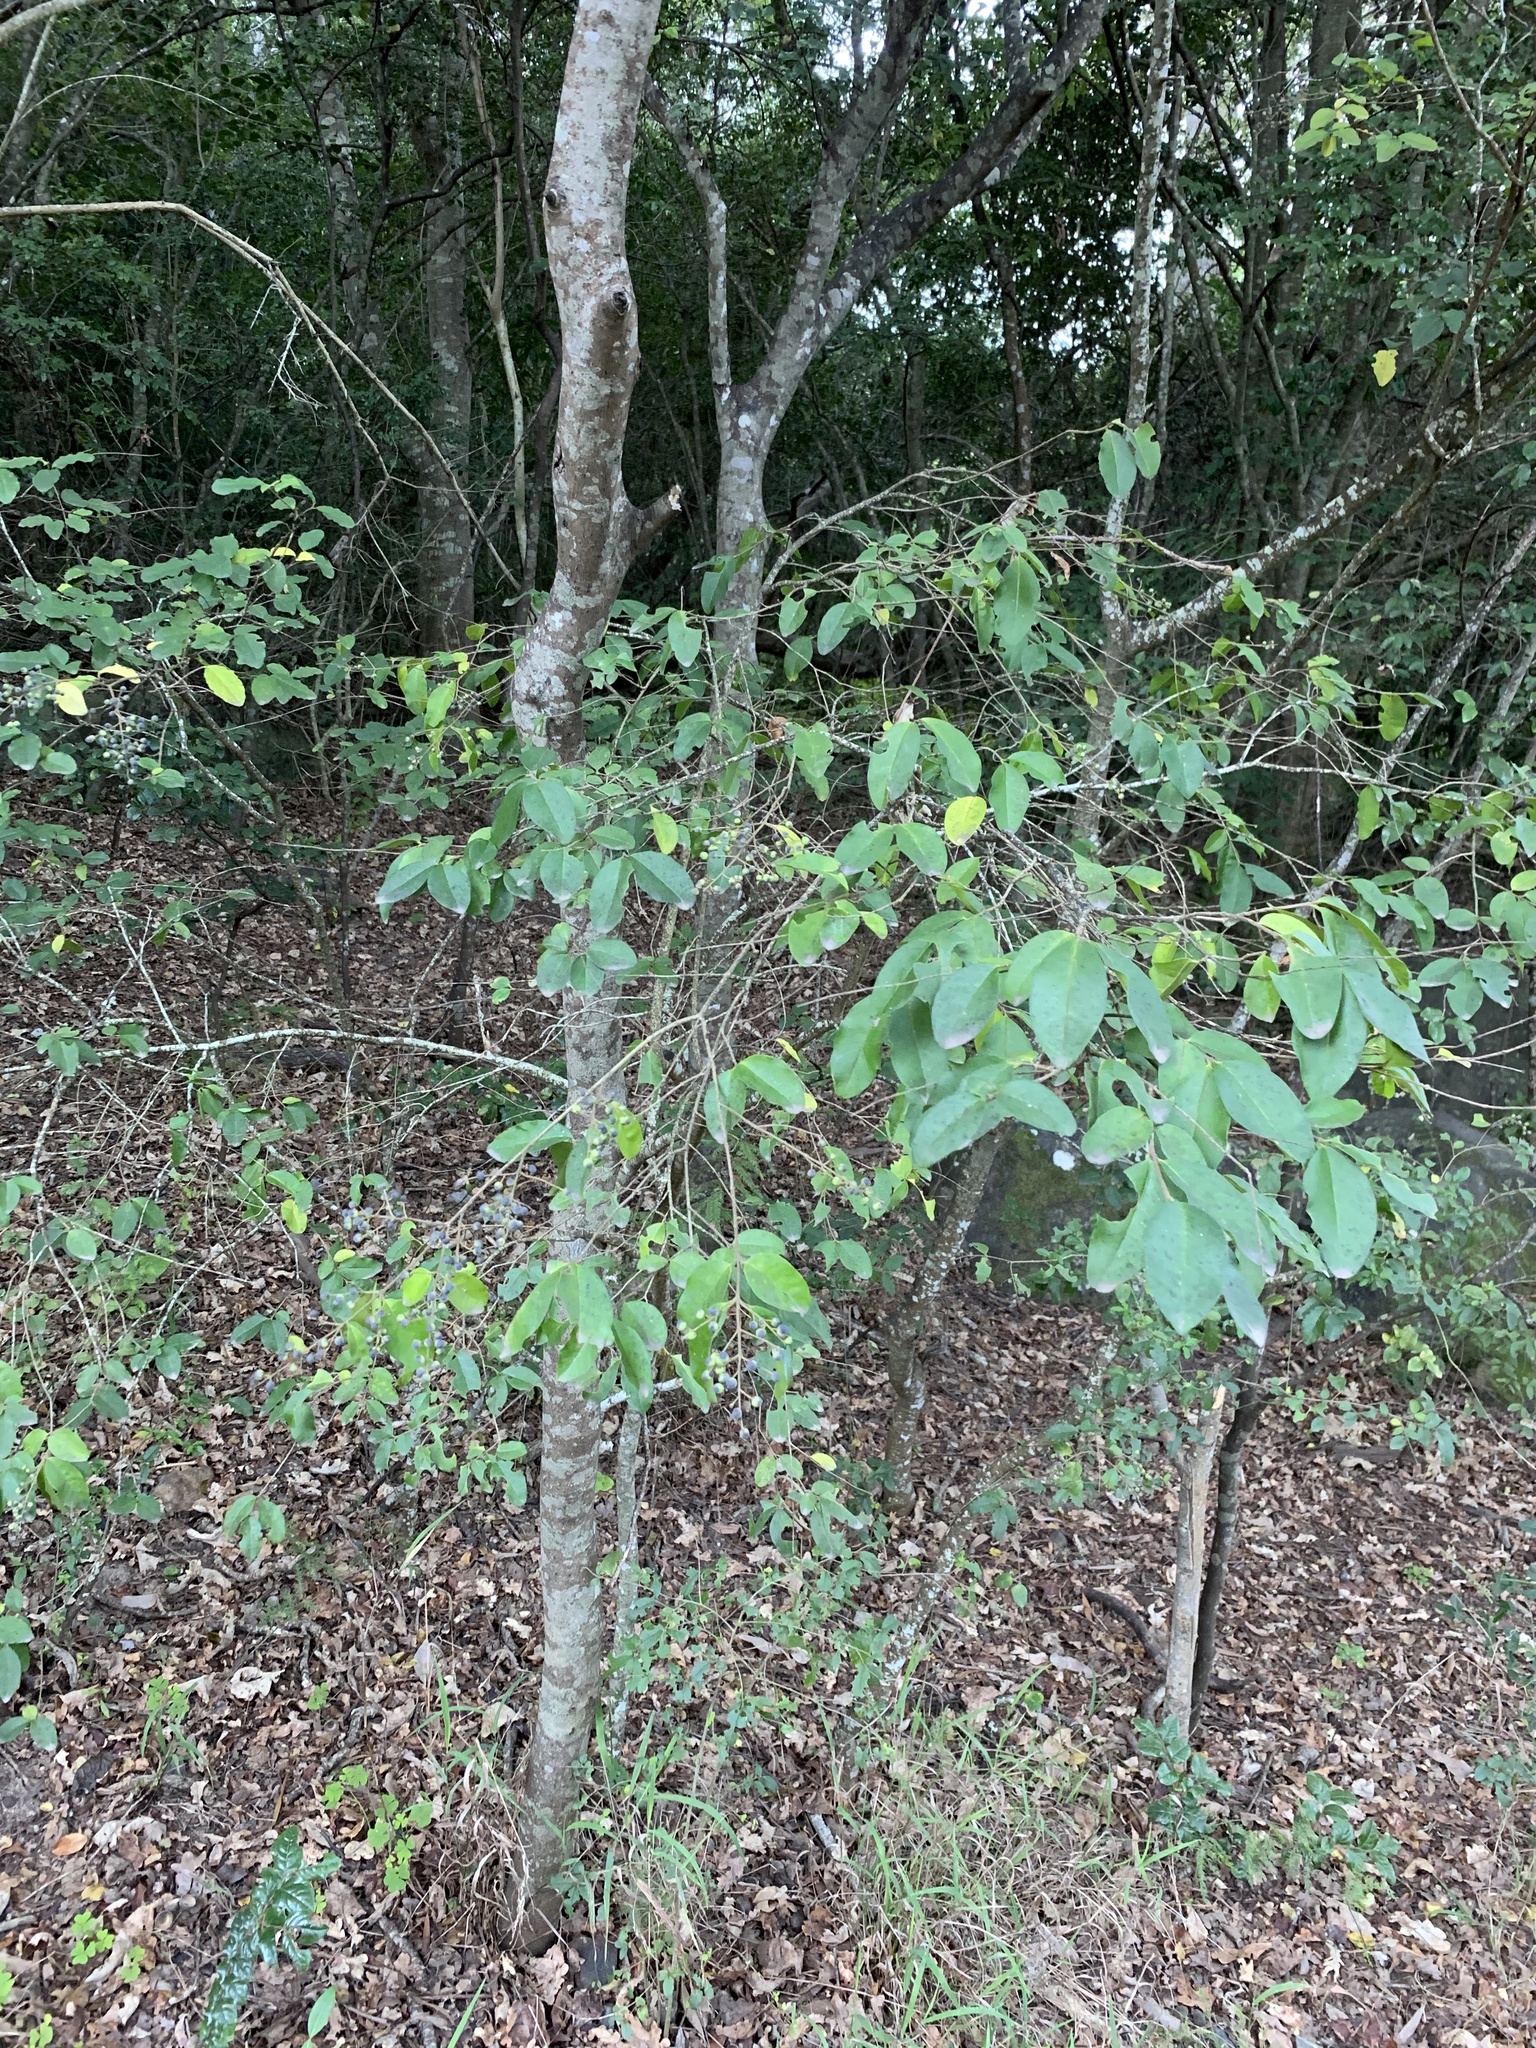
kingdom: Plantae
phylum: Tracheophyta
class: Magnoliopsida
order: Lamiales
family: Oleaceae
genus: Ligustrum
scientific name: Ligustrum sinense
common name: Chinese privet
